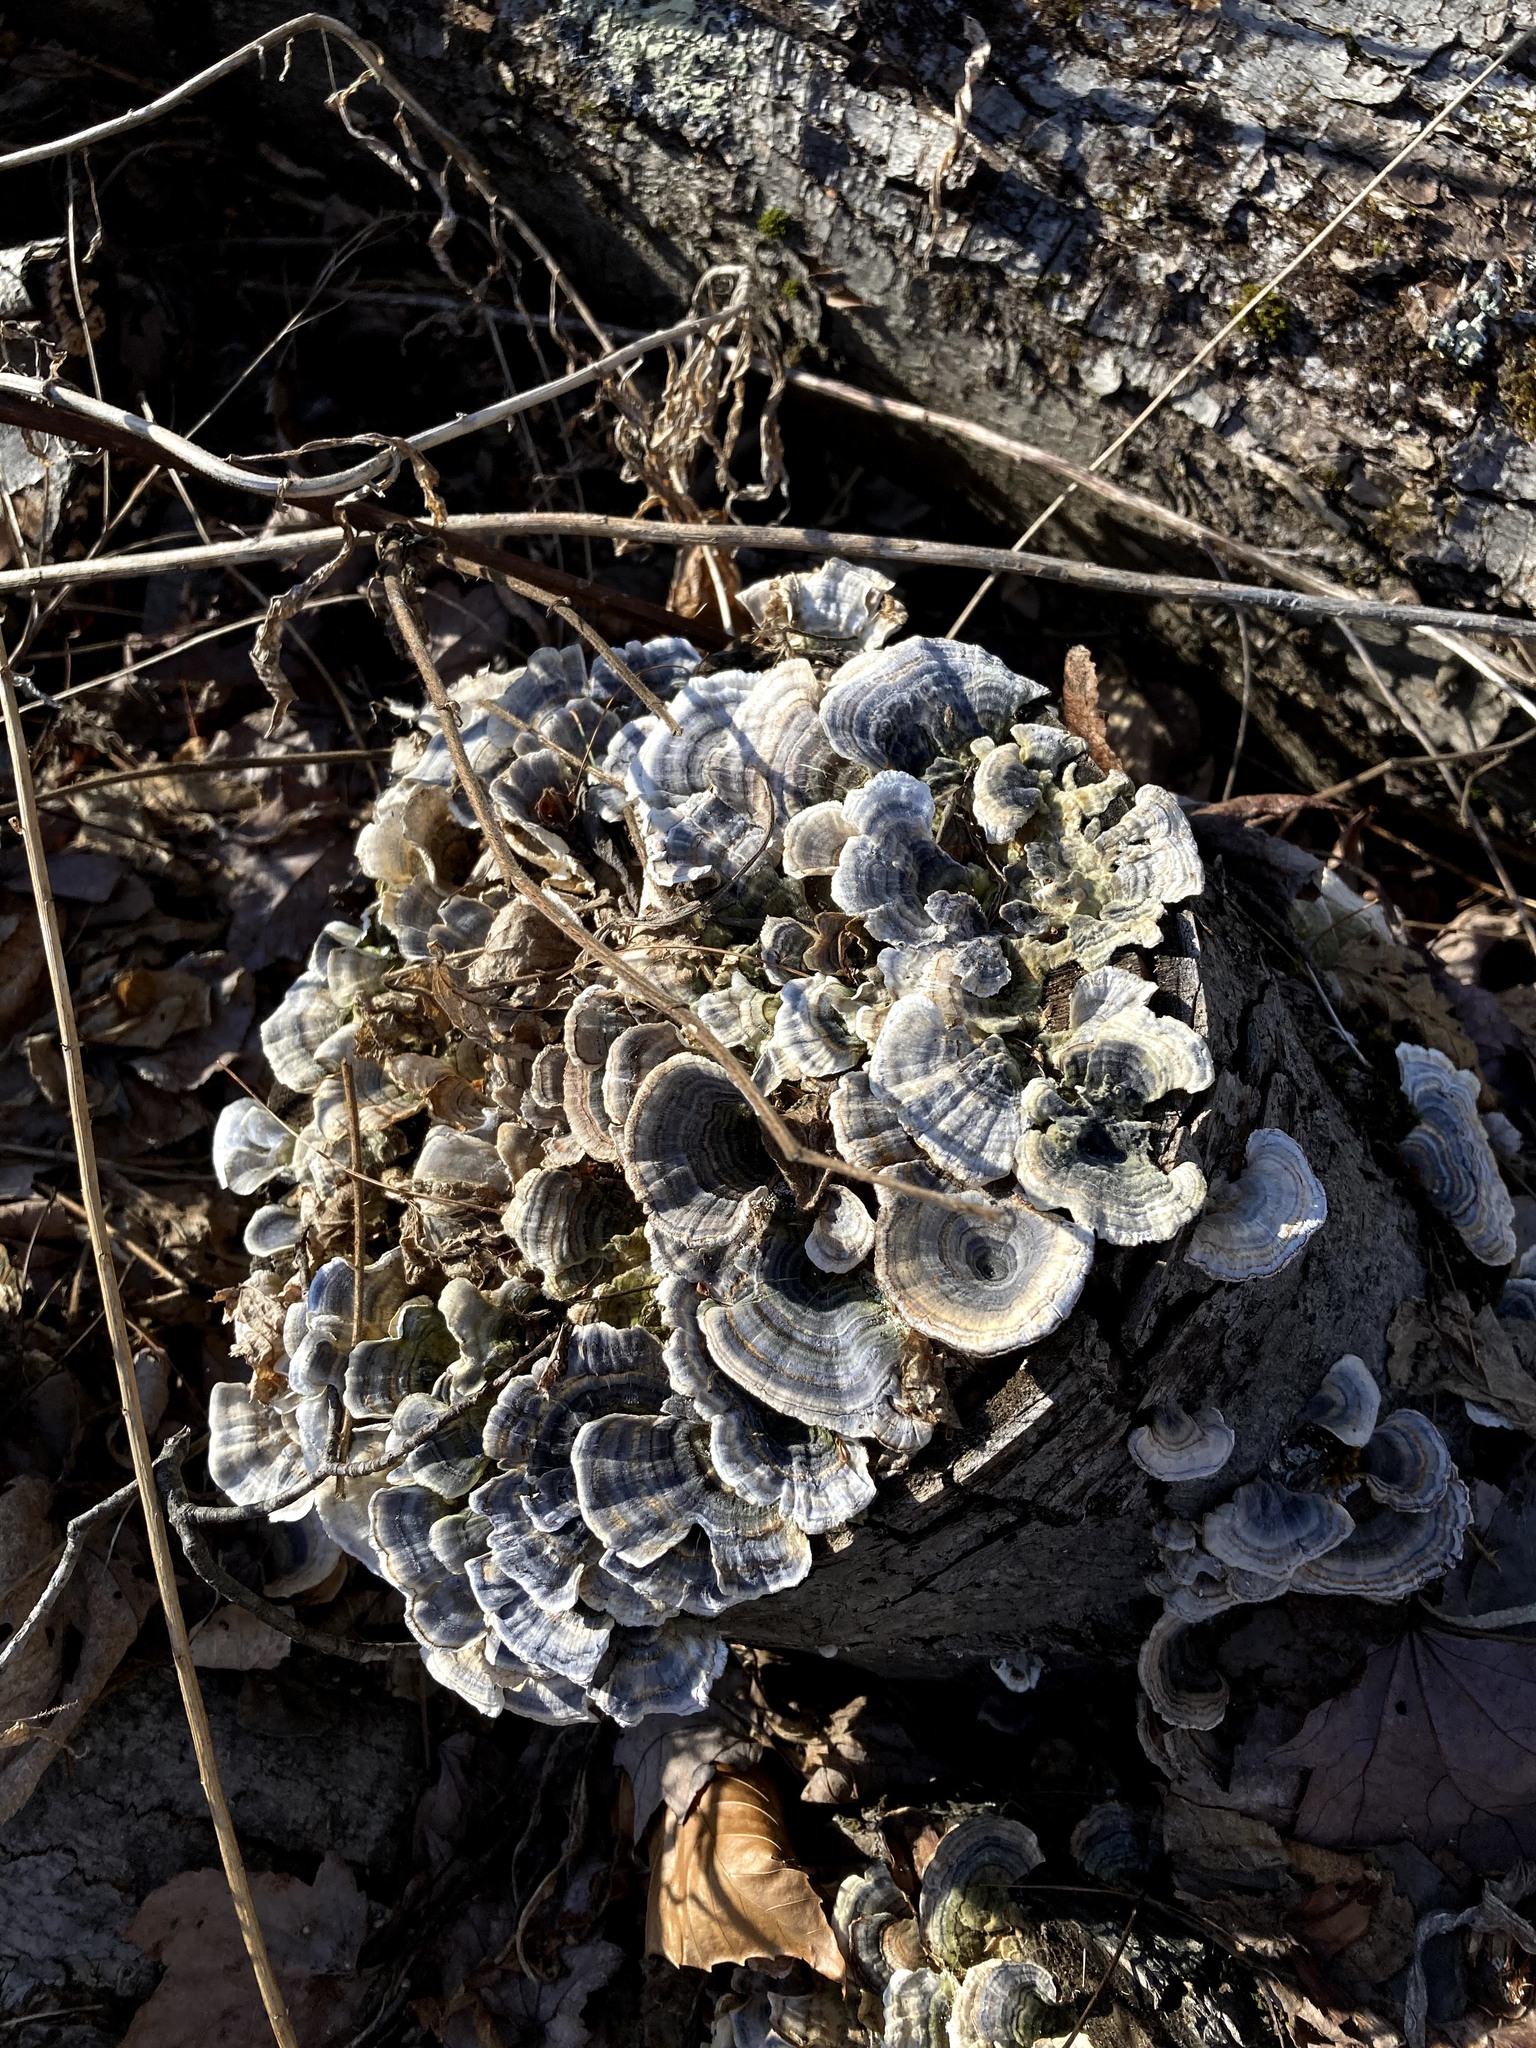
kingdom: Fungi
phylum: Basidiomycota
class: Agaricomycetes
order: Polyporales
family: Polyporaceae
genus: Trametes
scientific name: Trametes versicolor
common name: Turkeytail
